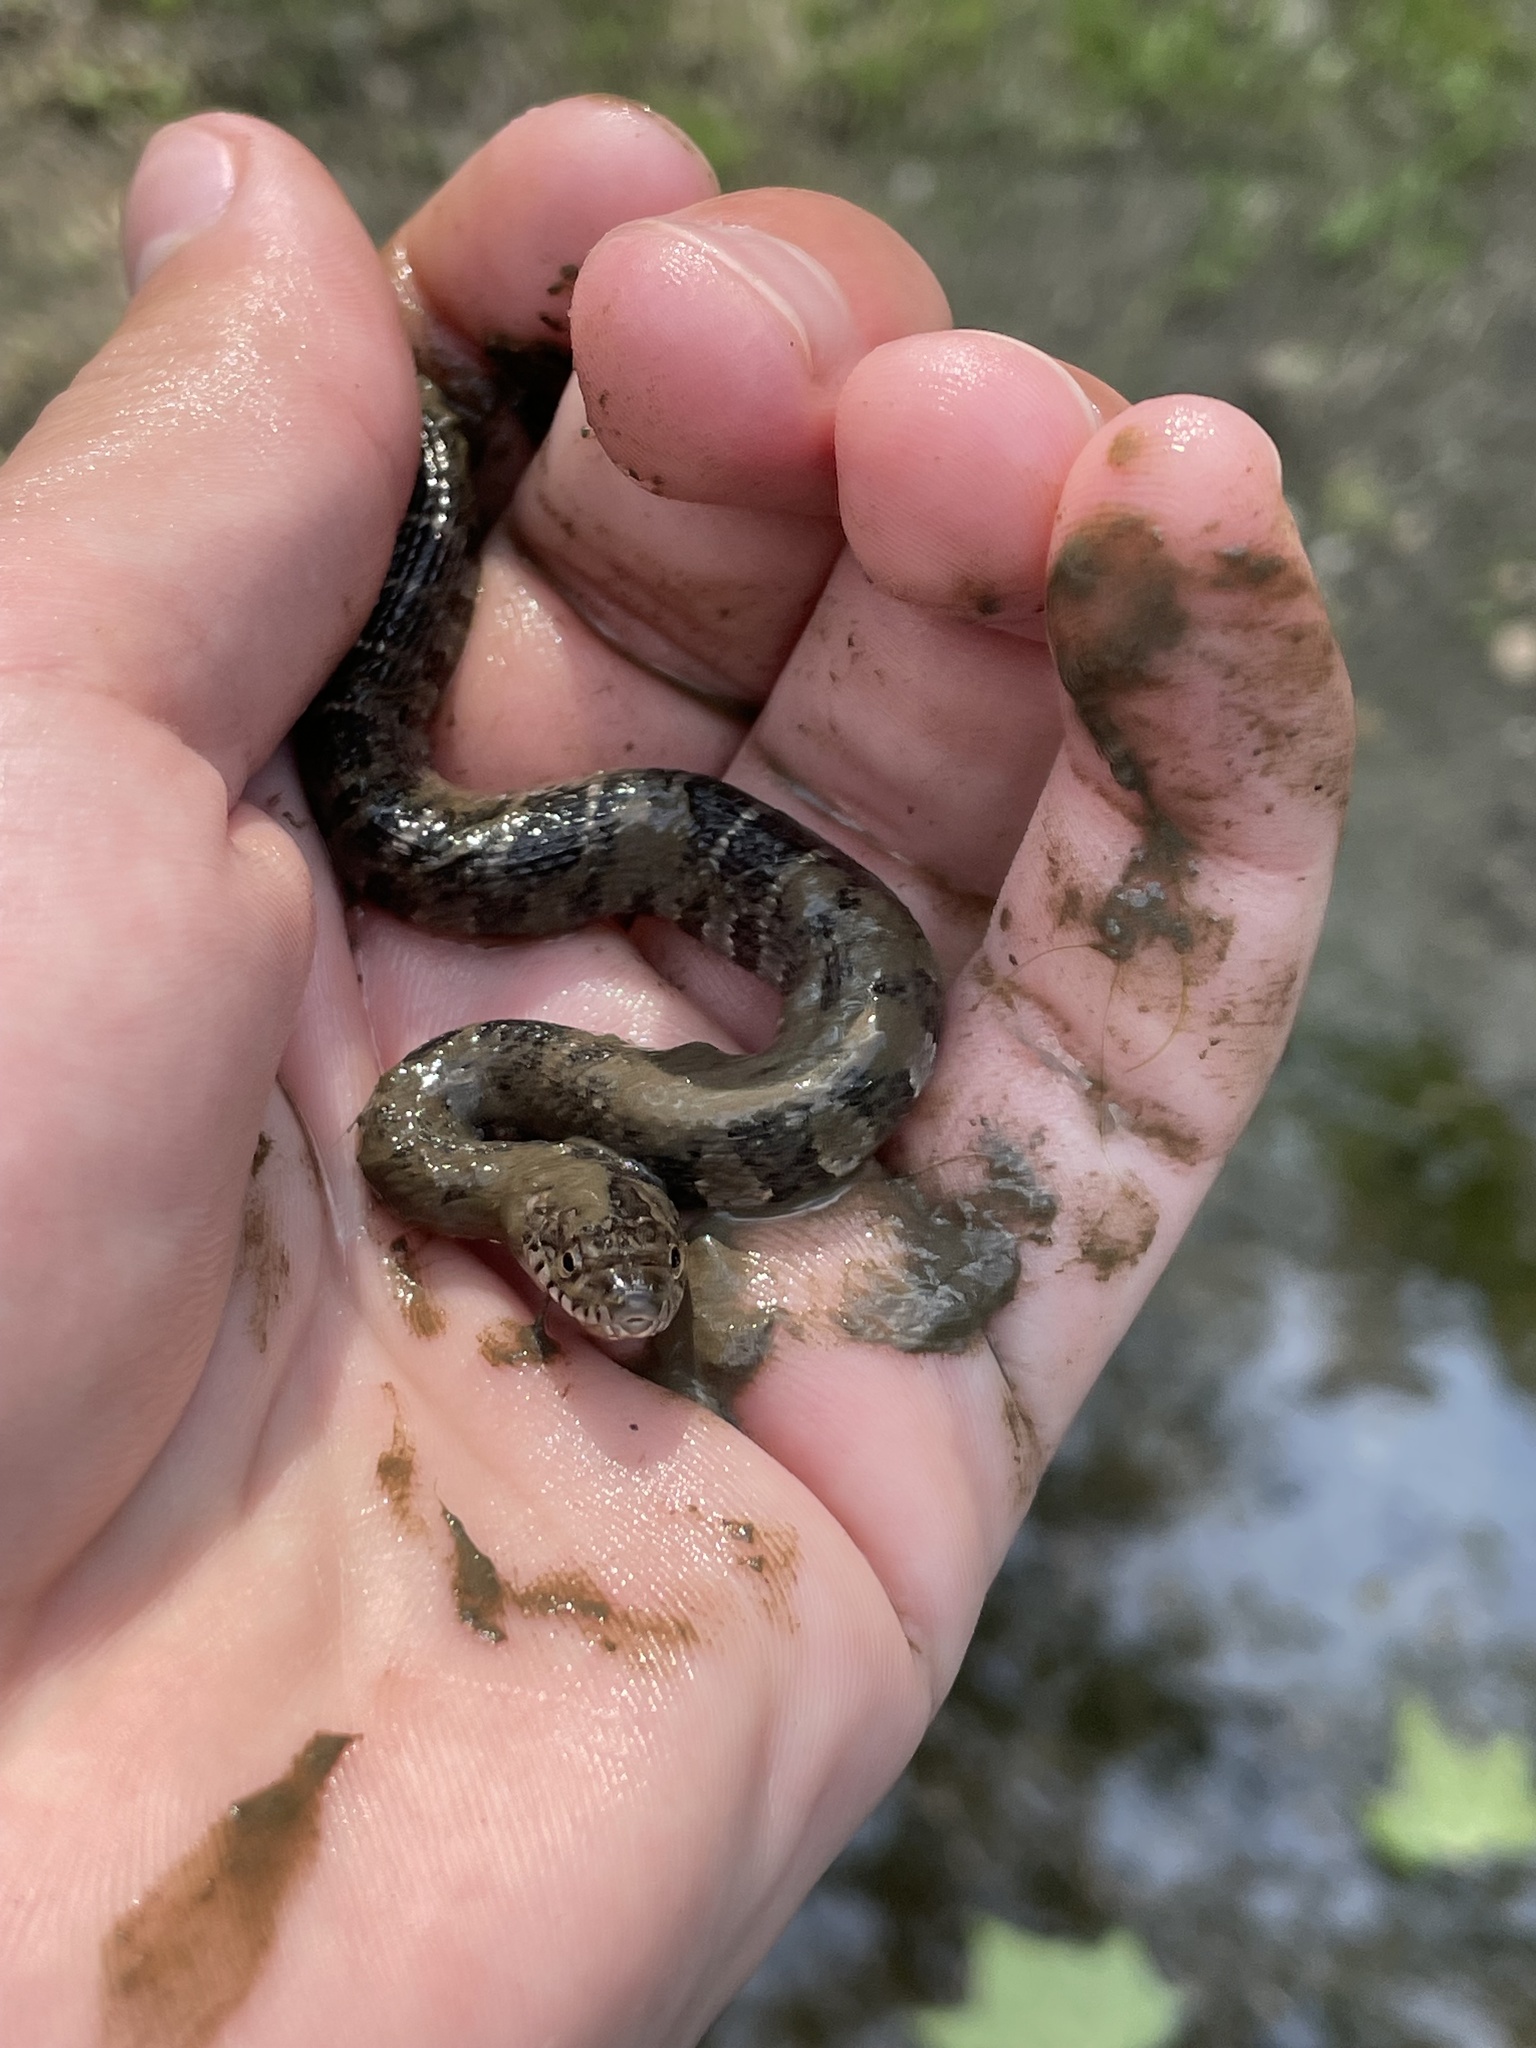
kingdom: Animalia
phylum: Chordata
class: Squamata
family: Colubridae
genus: Nerodia
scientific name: Nerodia sipedon
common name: Northern water snake
